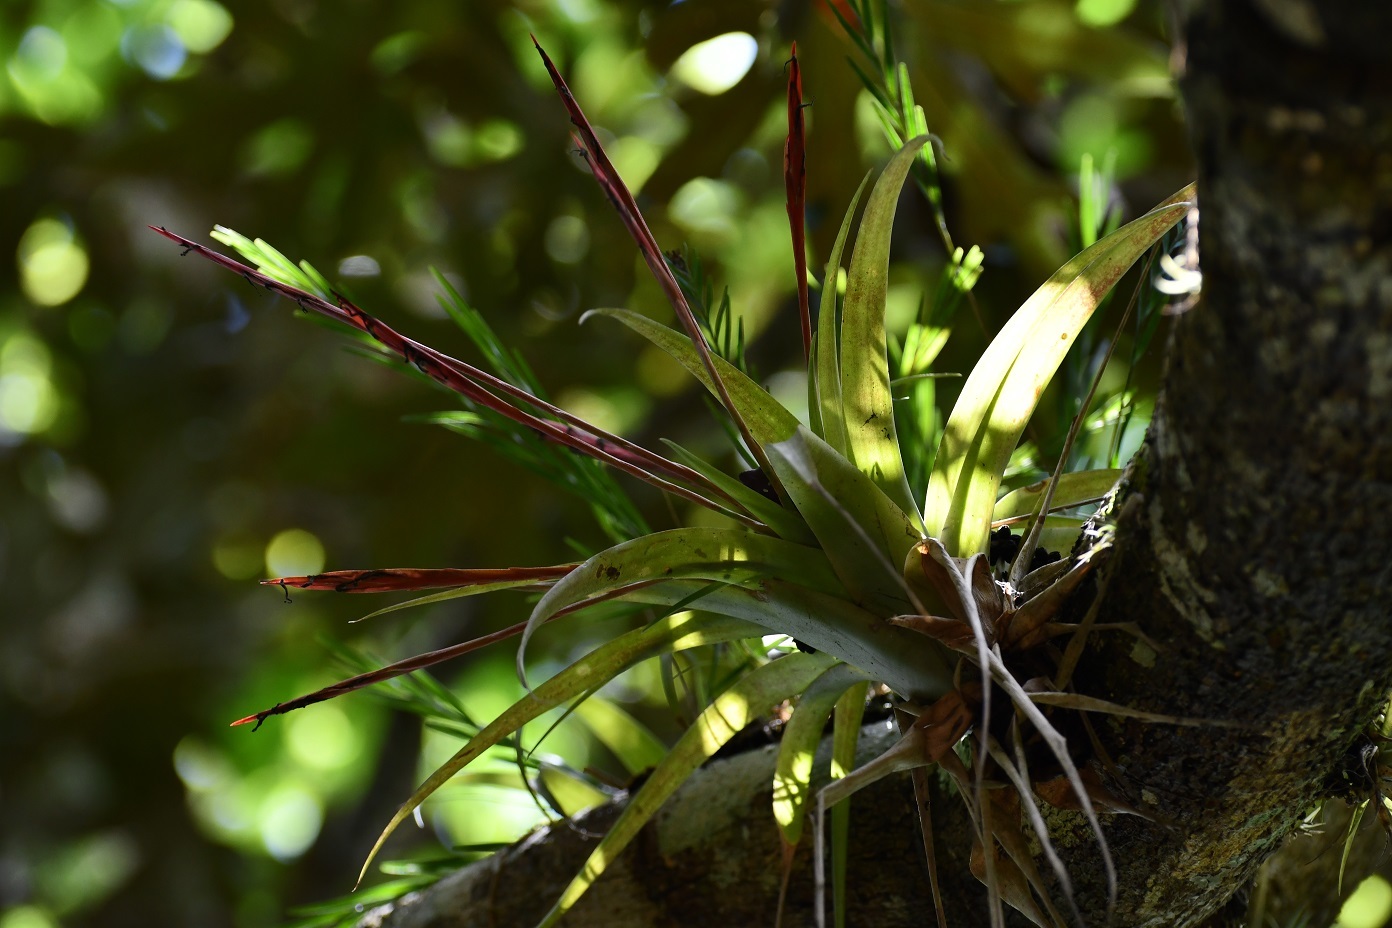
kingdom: Plantae
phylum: Tracheophyta
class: Liliopsida
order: Poales
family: Bromeliaceae
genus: Tillandsia
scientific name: Tillandsia flabellata
